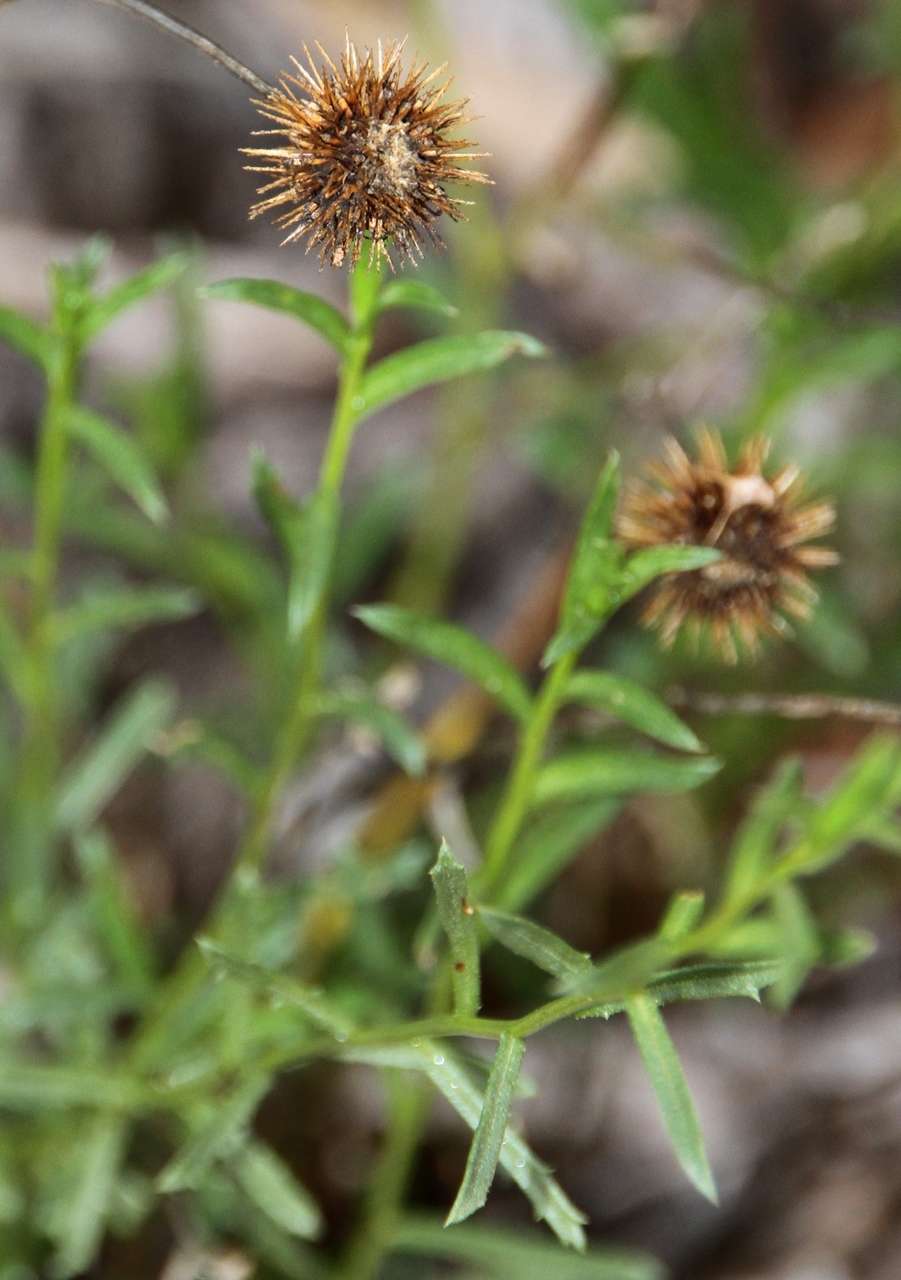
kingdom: Plantae
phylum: Tracheophyta
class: Magnoliopsida
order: Asterales
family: Asteraceae
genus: Calotis
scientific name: Calotis erinacea
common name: Tangled bur daisy
